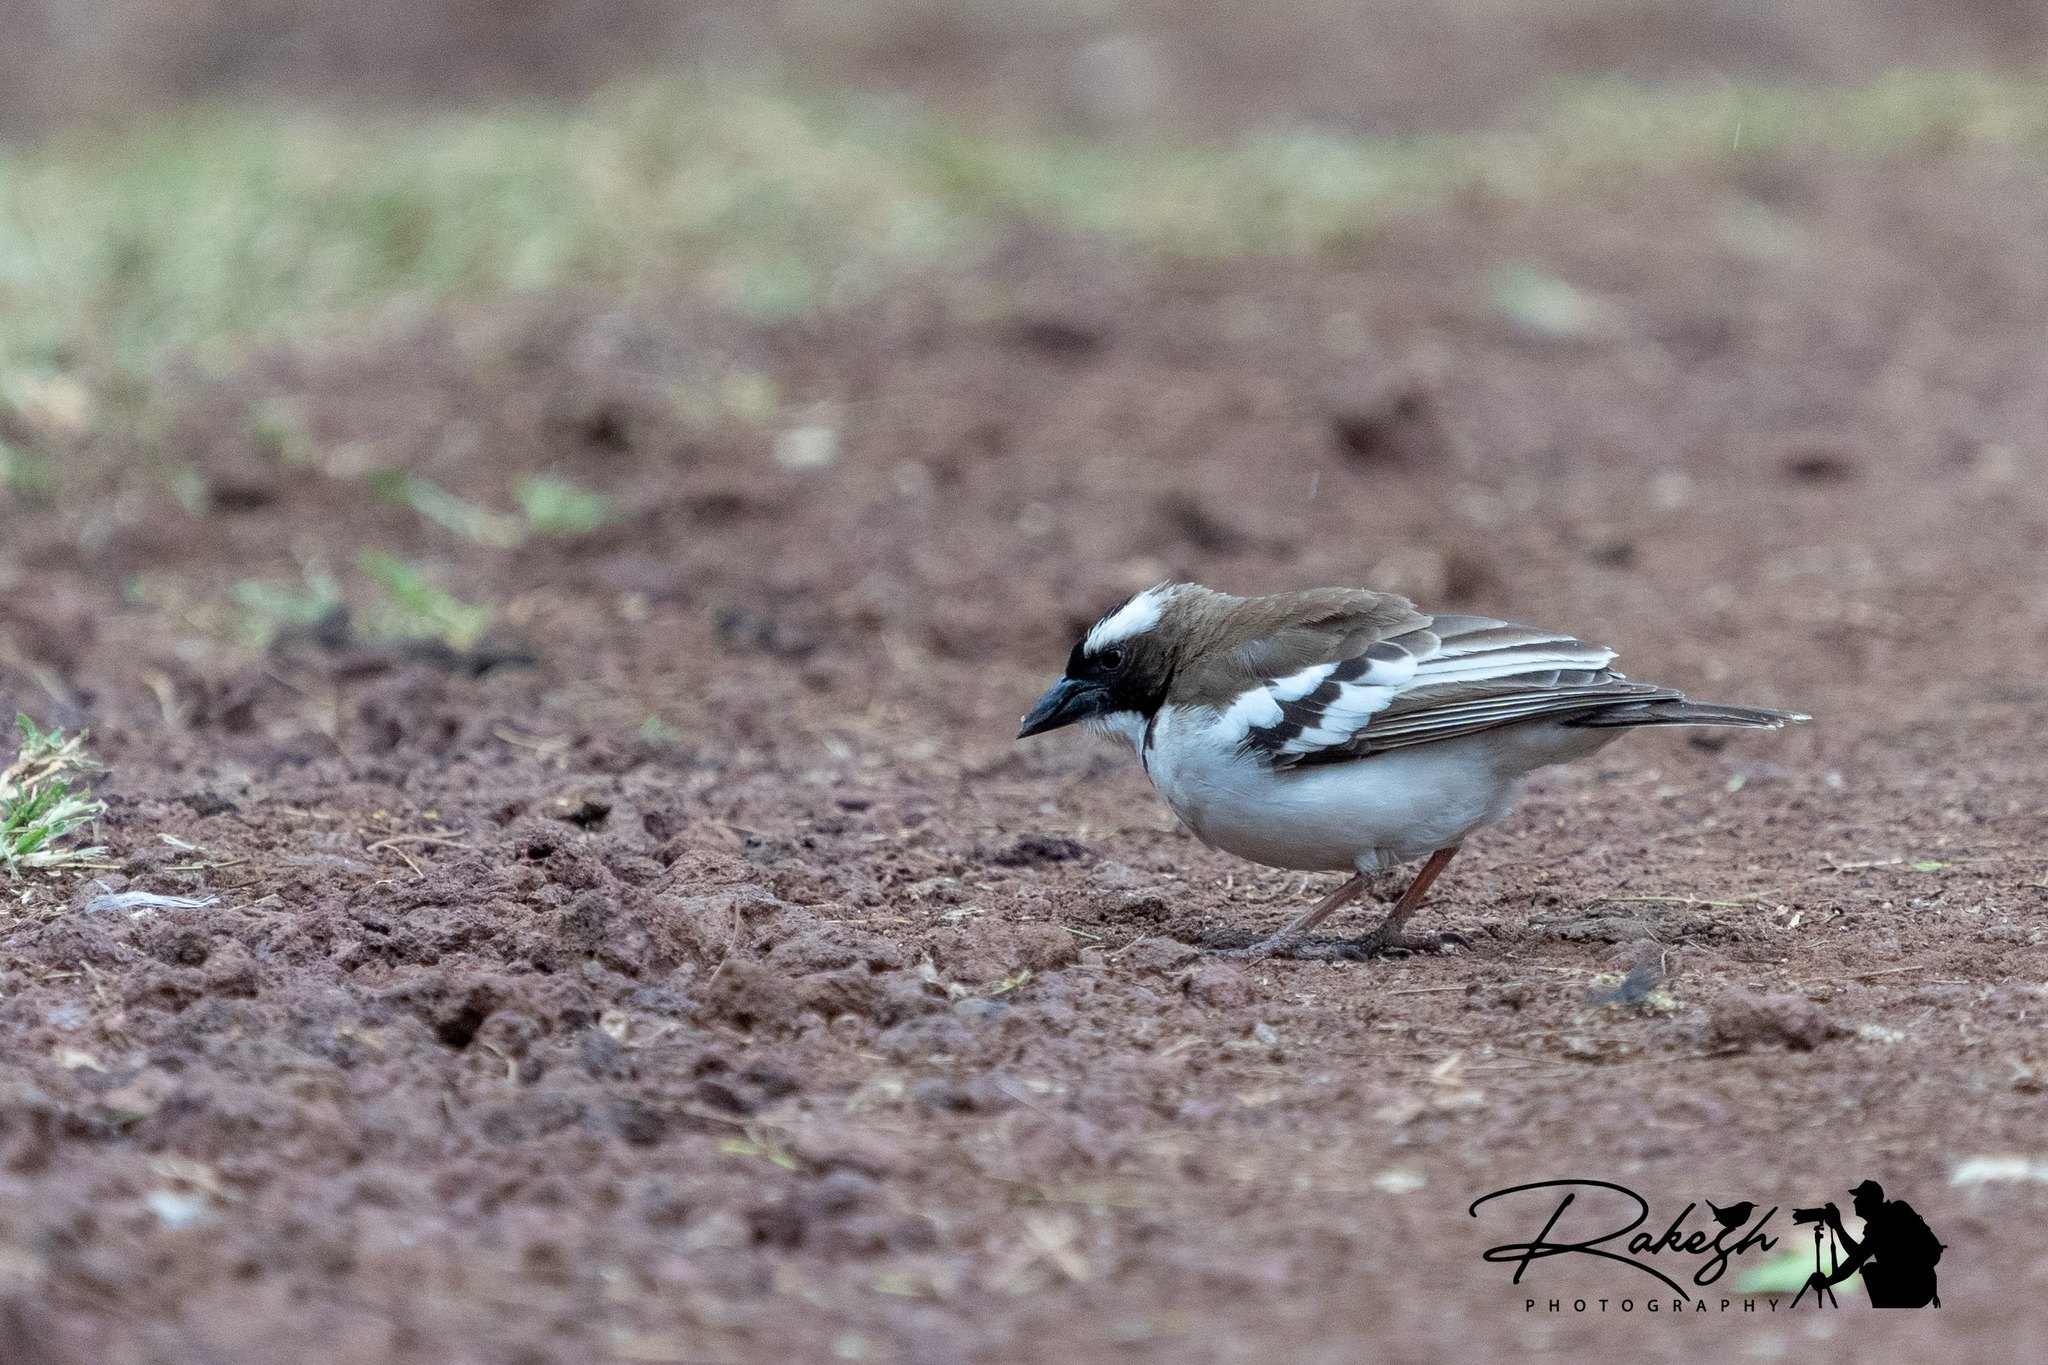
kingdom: Animalia
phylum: Chordata
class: Aves
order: Passeriformes
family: Passeridae
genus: Plocepasser
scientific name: Plocepasser mahali
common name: White-browed sparrow-weaver
